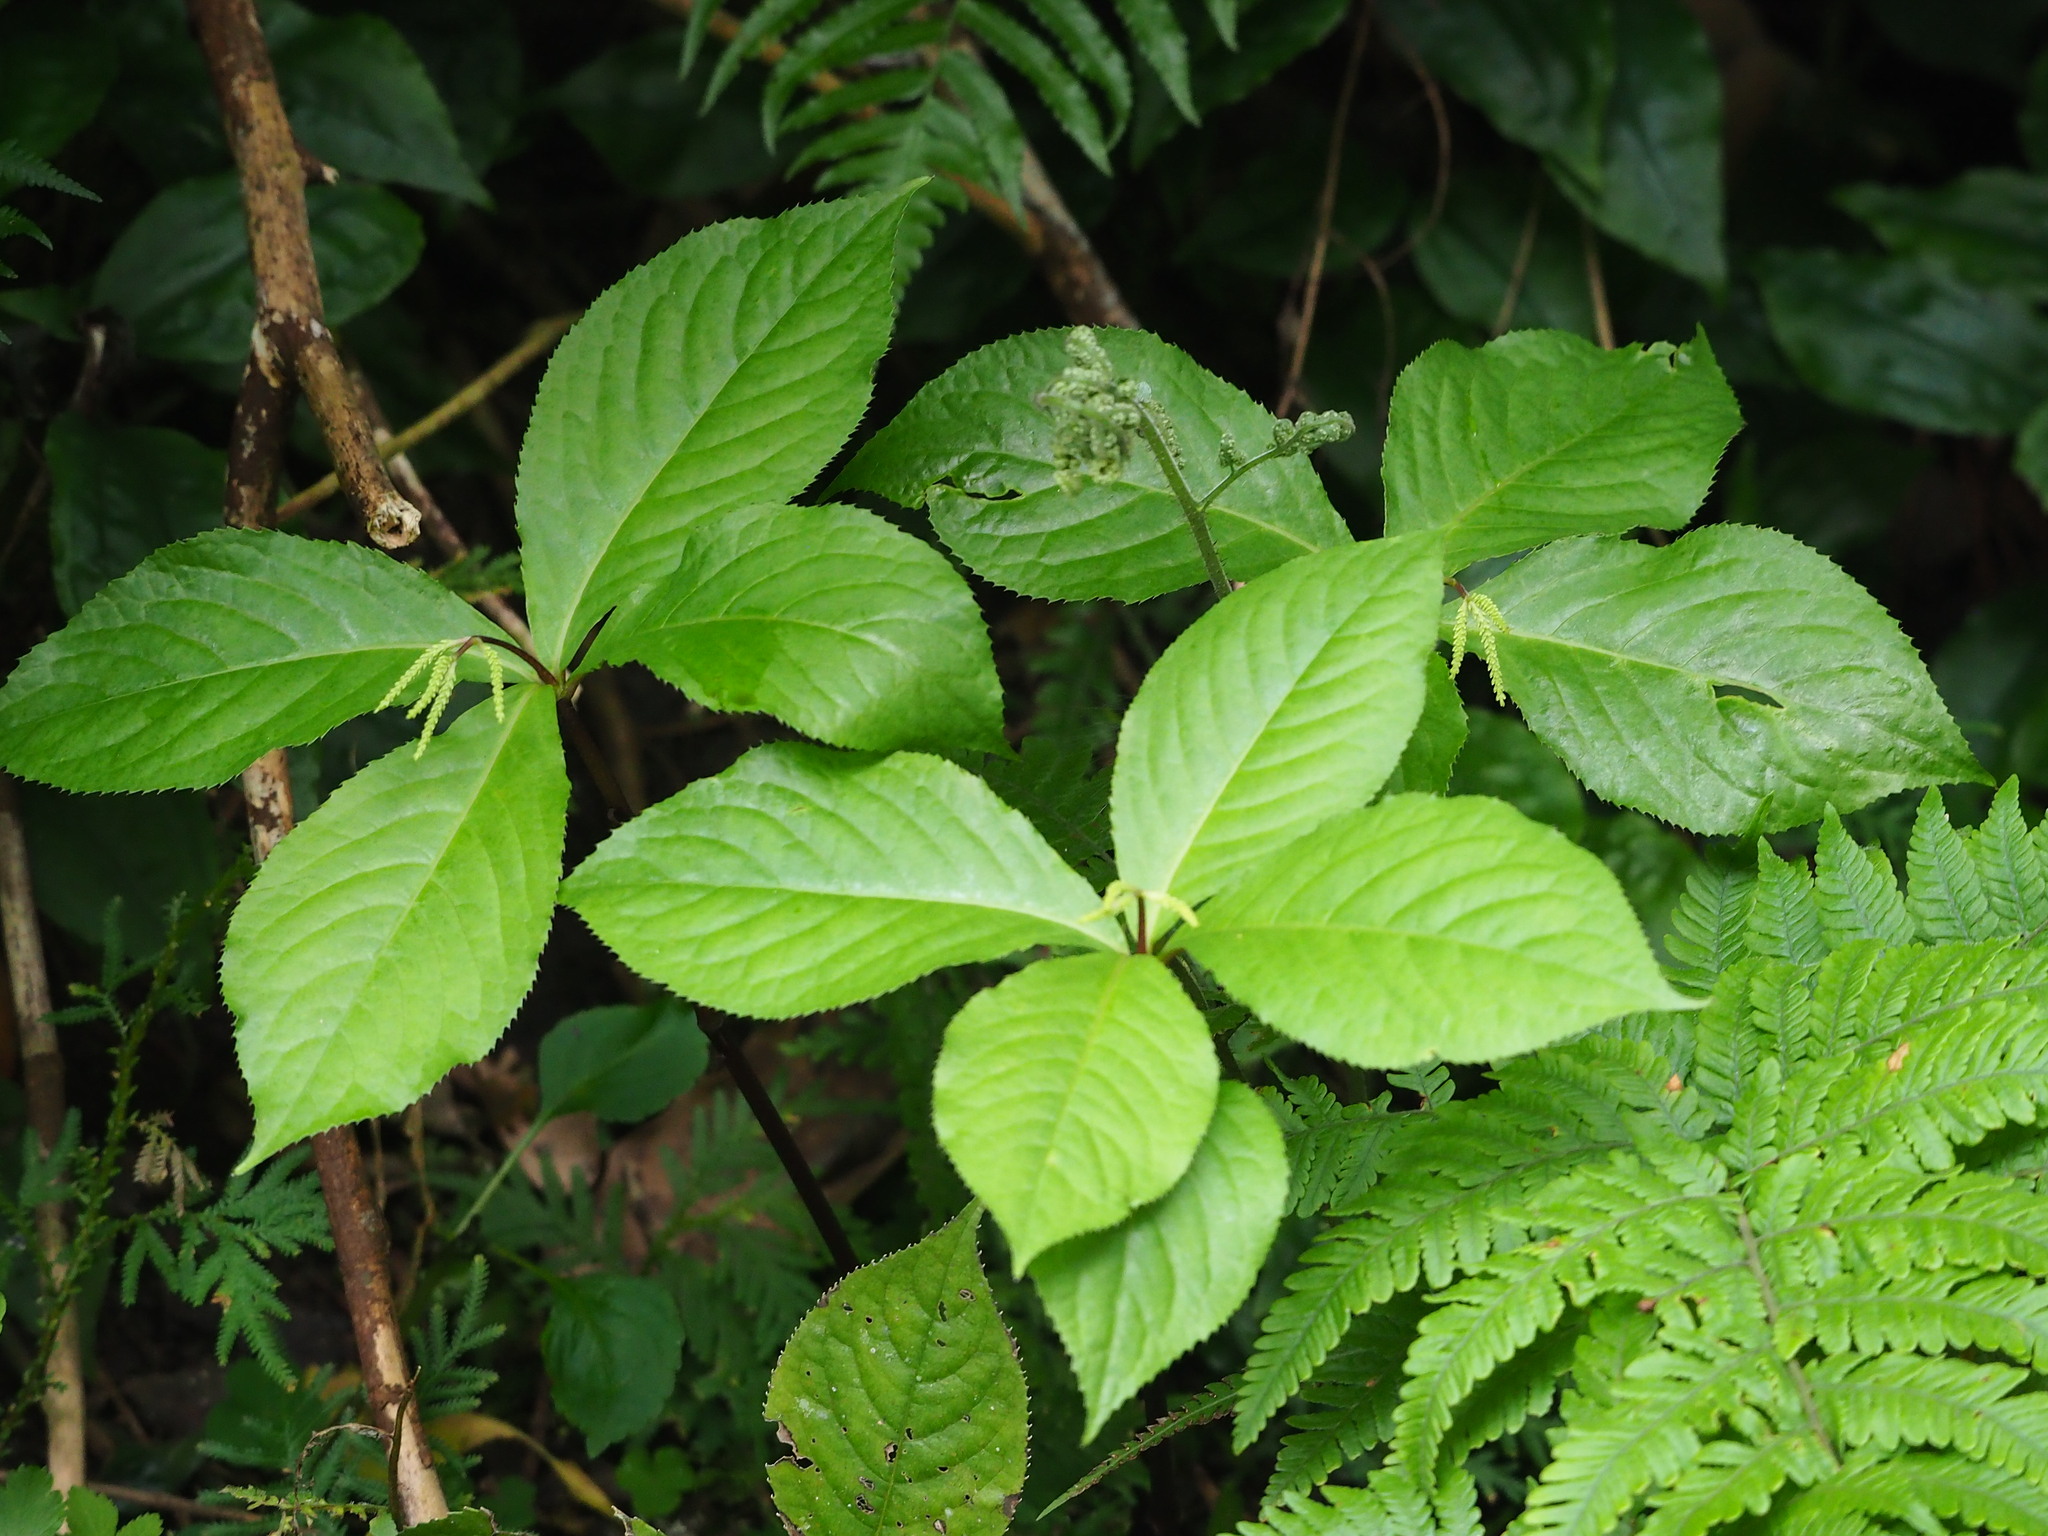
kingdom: Plantae
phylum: Tracheophyta
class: Magnoliopsida
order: Chloranthales
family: Chloranthaceae
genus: Chloranthus
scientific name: Chloranthus oldhamii
